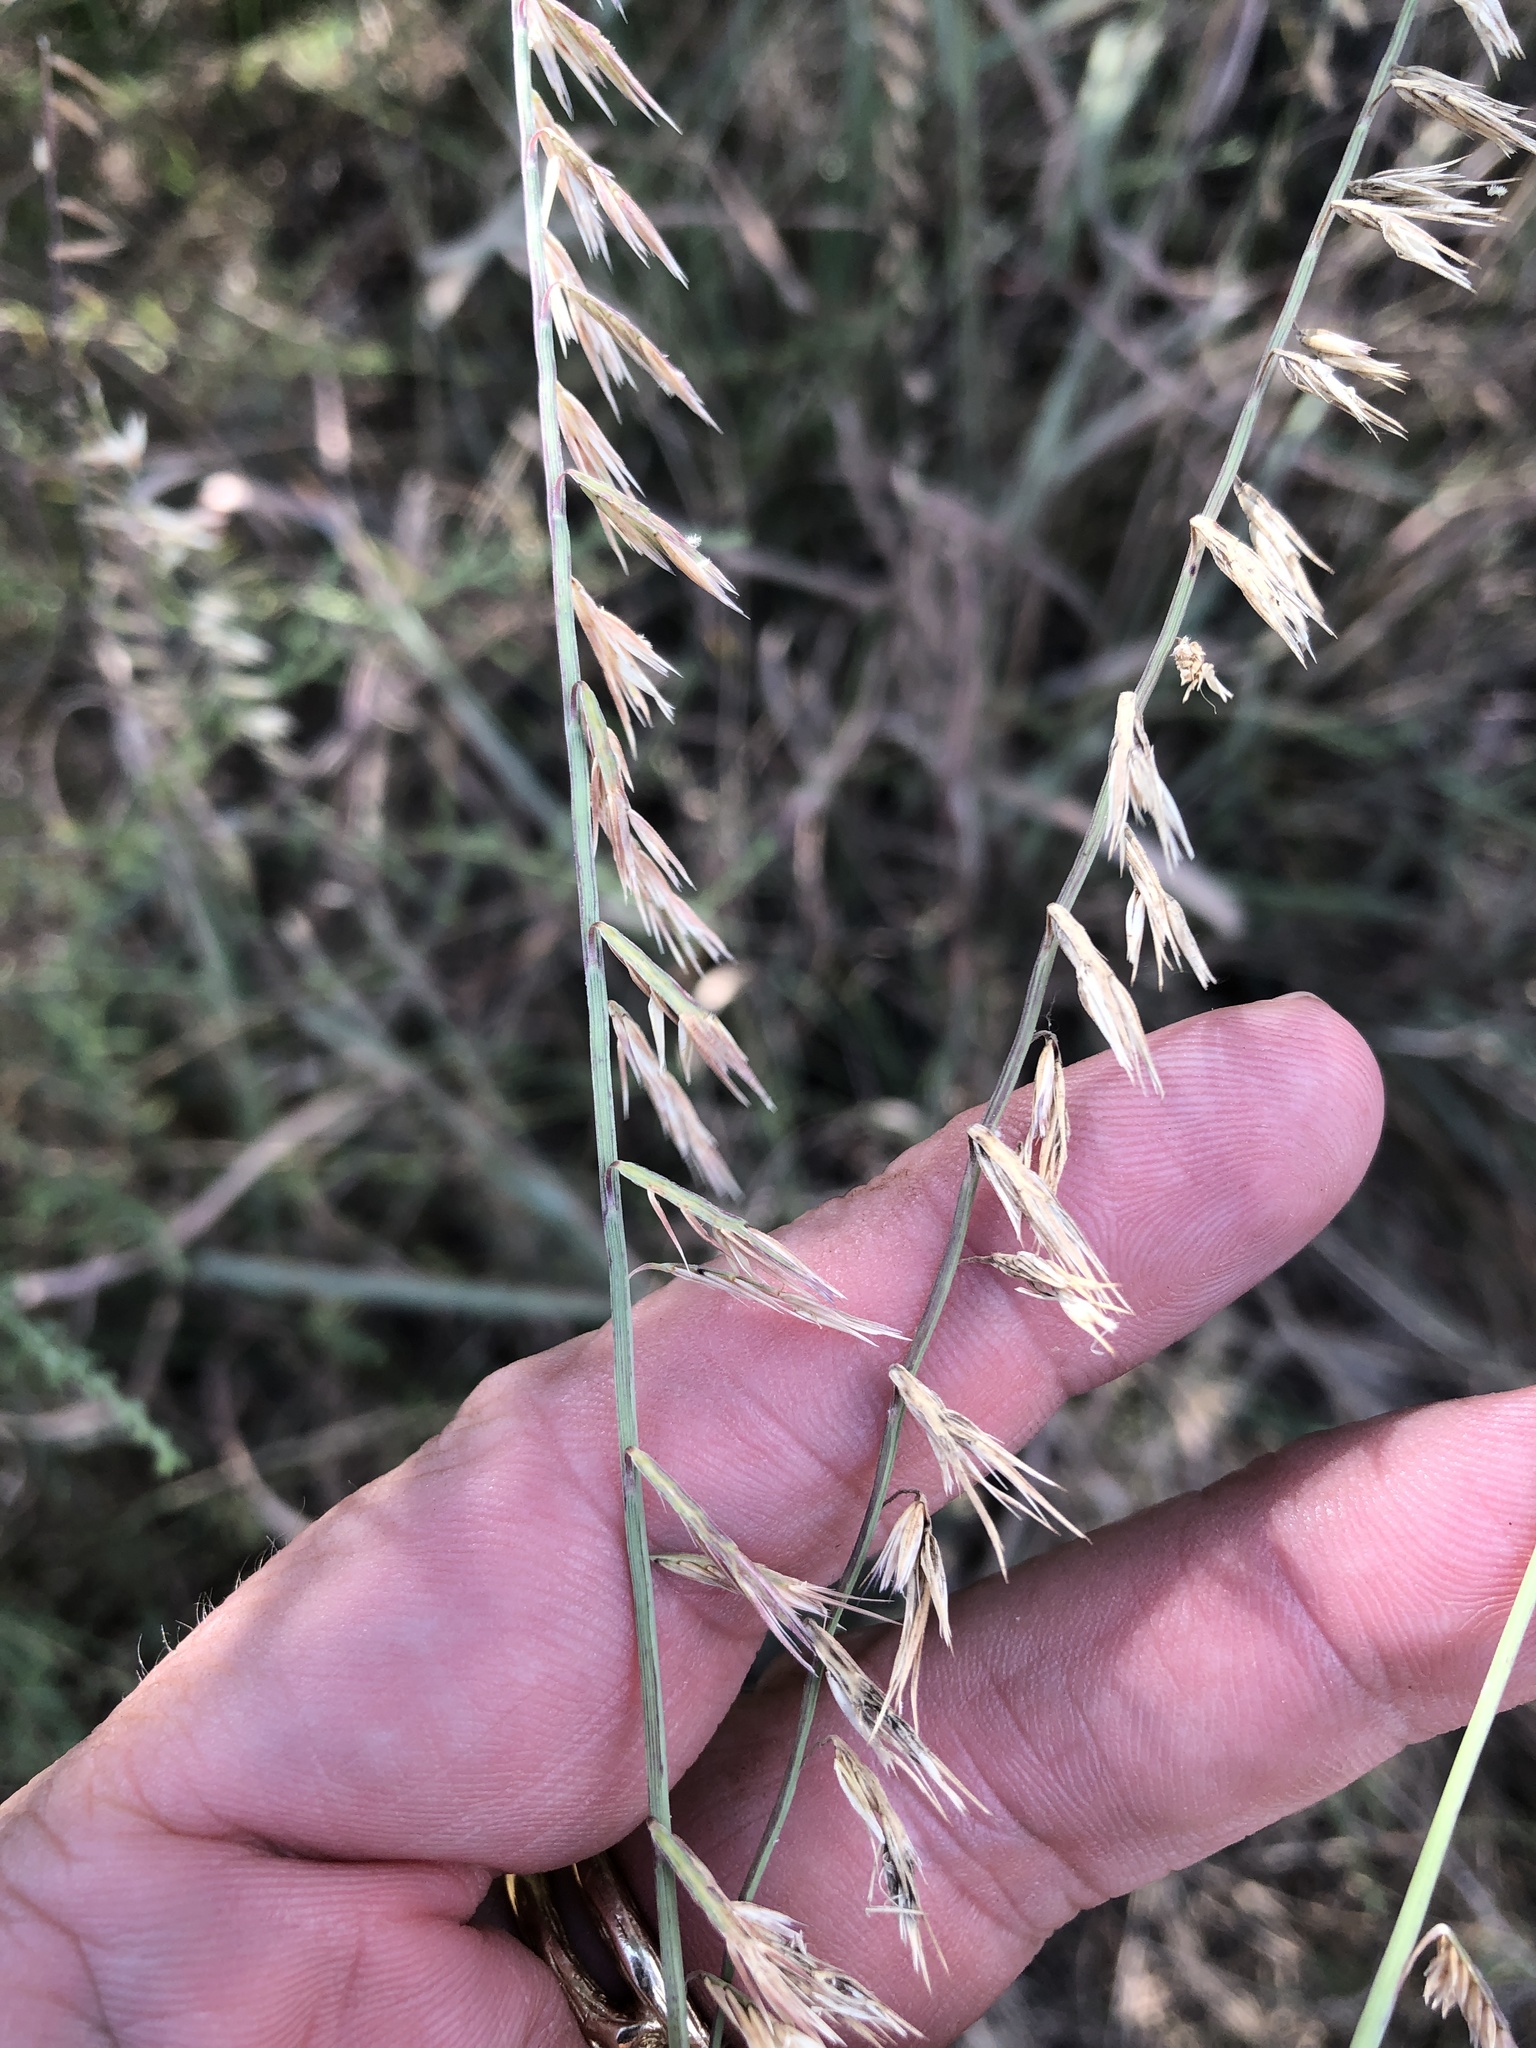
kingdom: Plantae
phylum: Tracheophyta
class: Liliopsida
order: Poales
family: Poaceae
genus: Bouteloua
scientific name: Bouteloua curtipendula
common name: Side-oats grama
